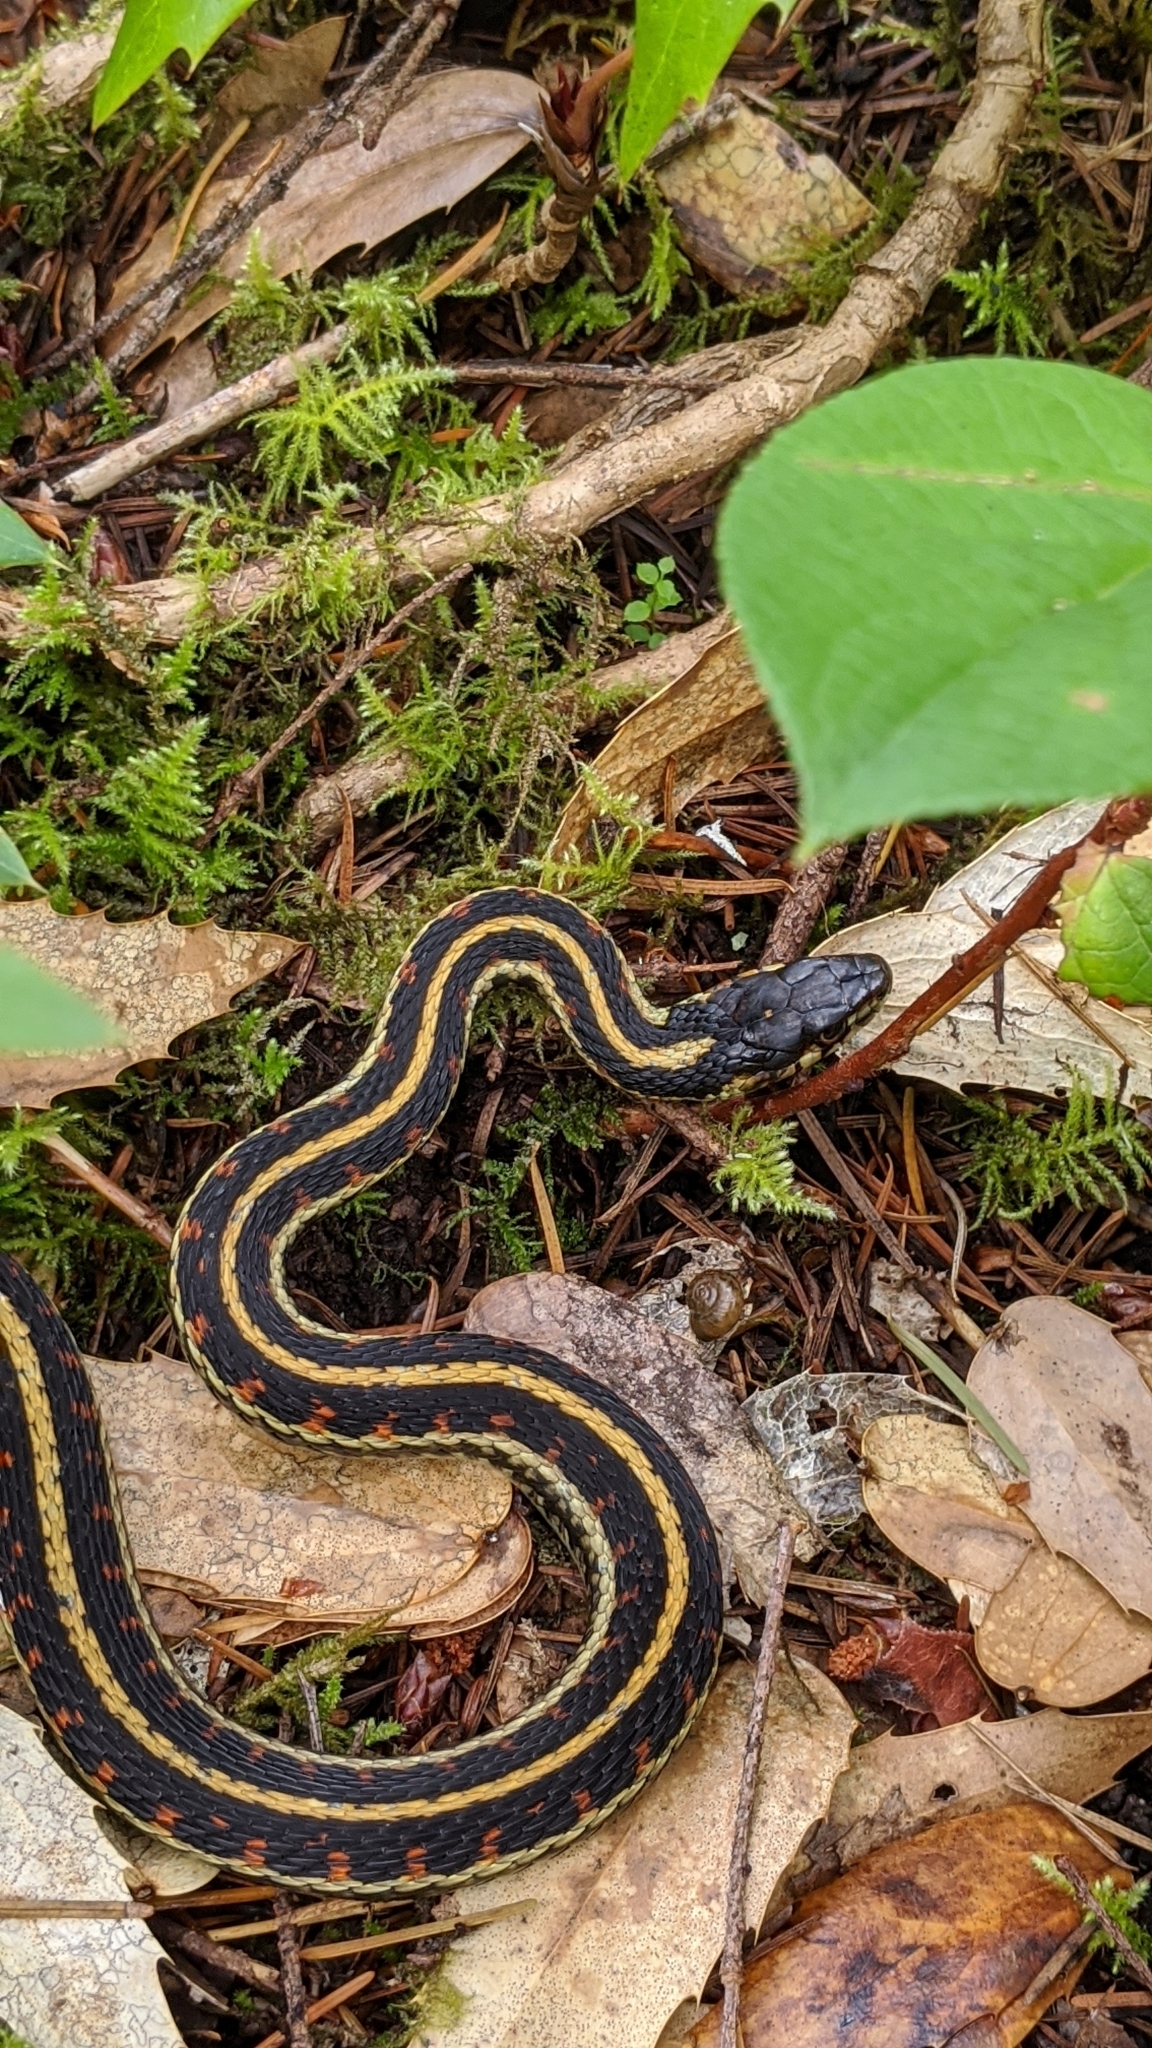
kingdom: Animalia
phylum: Chordata
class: Squamata
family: Colubridae
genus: Thamnophis
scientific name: Thamnophis sirtalis
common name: Common garter snake
